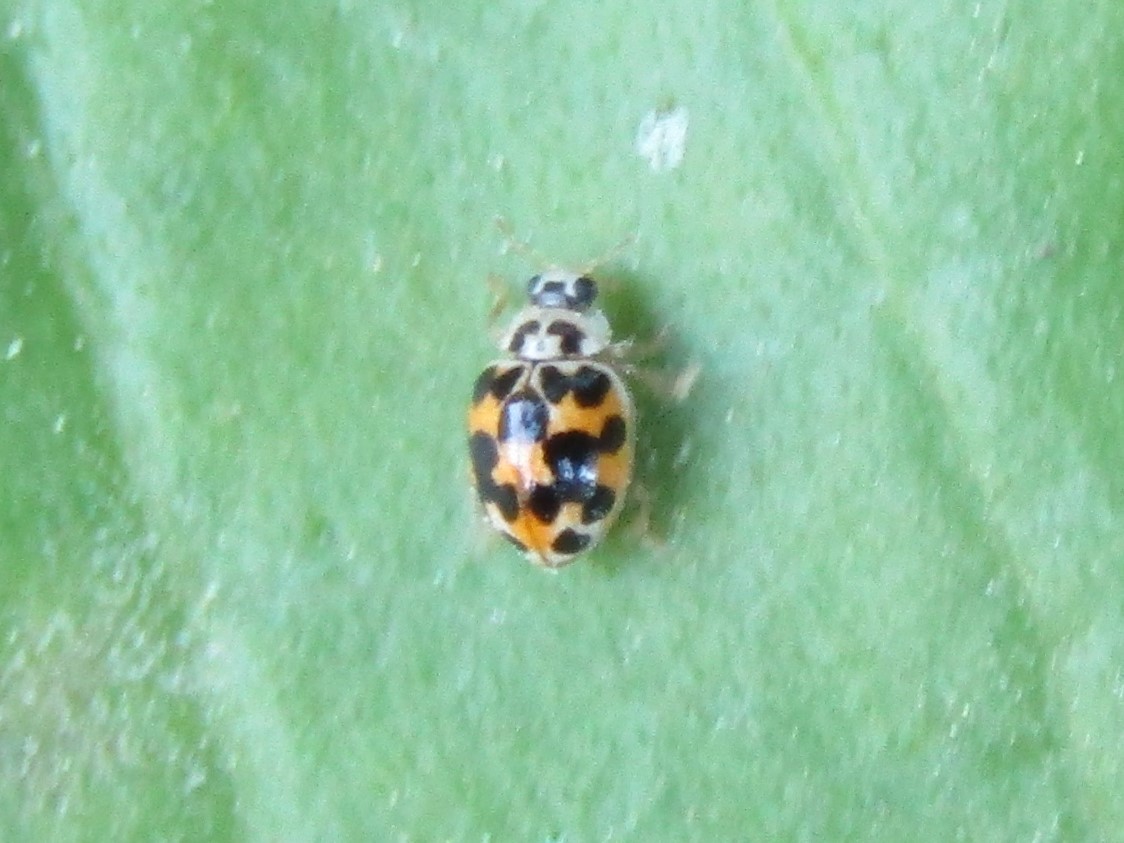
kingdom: Animalia
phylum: Arthropoda
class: Insecta
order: Coleoptera
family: Coccinellidae
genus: Psyllobora
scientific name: Psyllobora vigintimaculata
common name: Ladybird beetle
